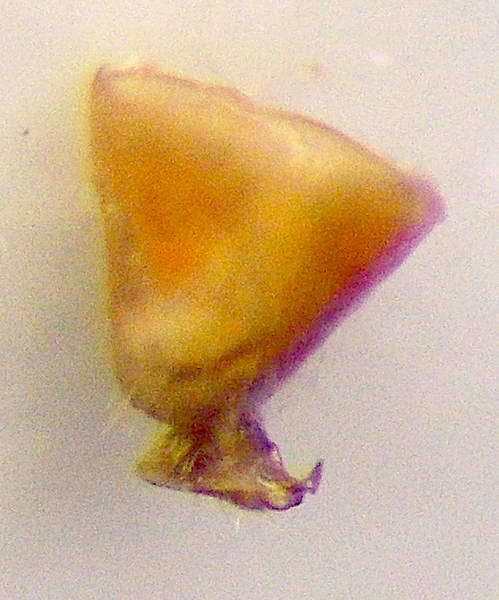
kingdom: Animalia
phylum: Arthropoda
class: Insecta
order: Hemiptera
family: Miridae
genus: Hallodapus
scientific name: Hallodapus concolor
